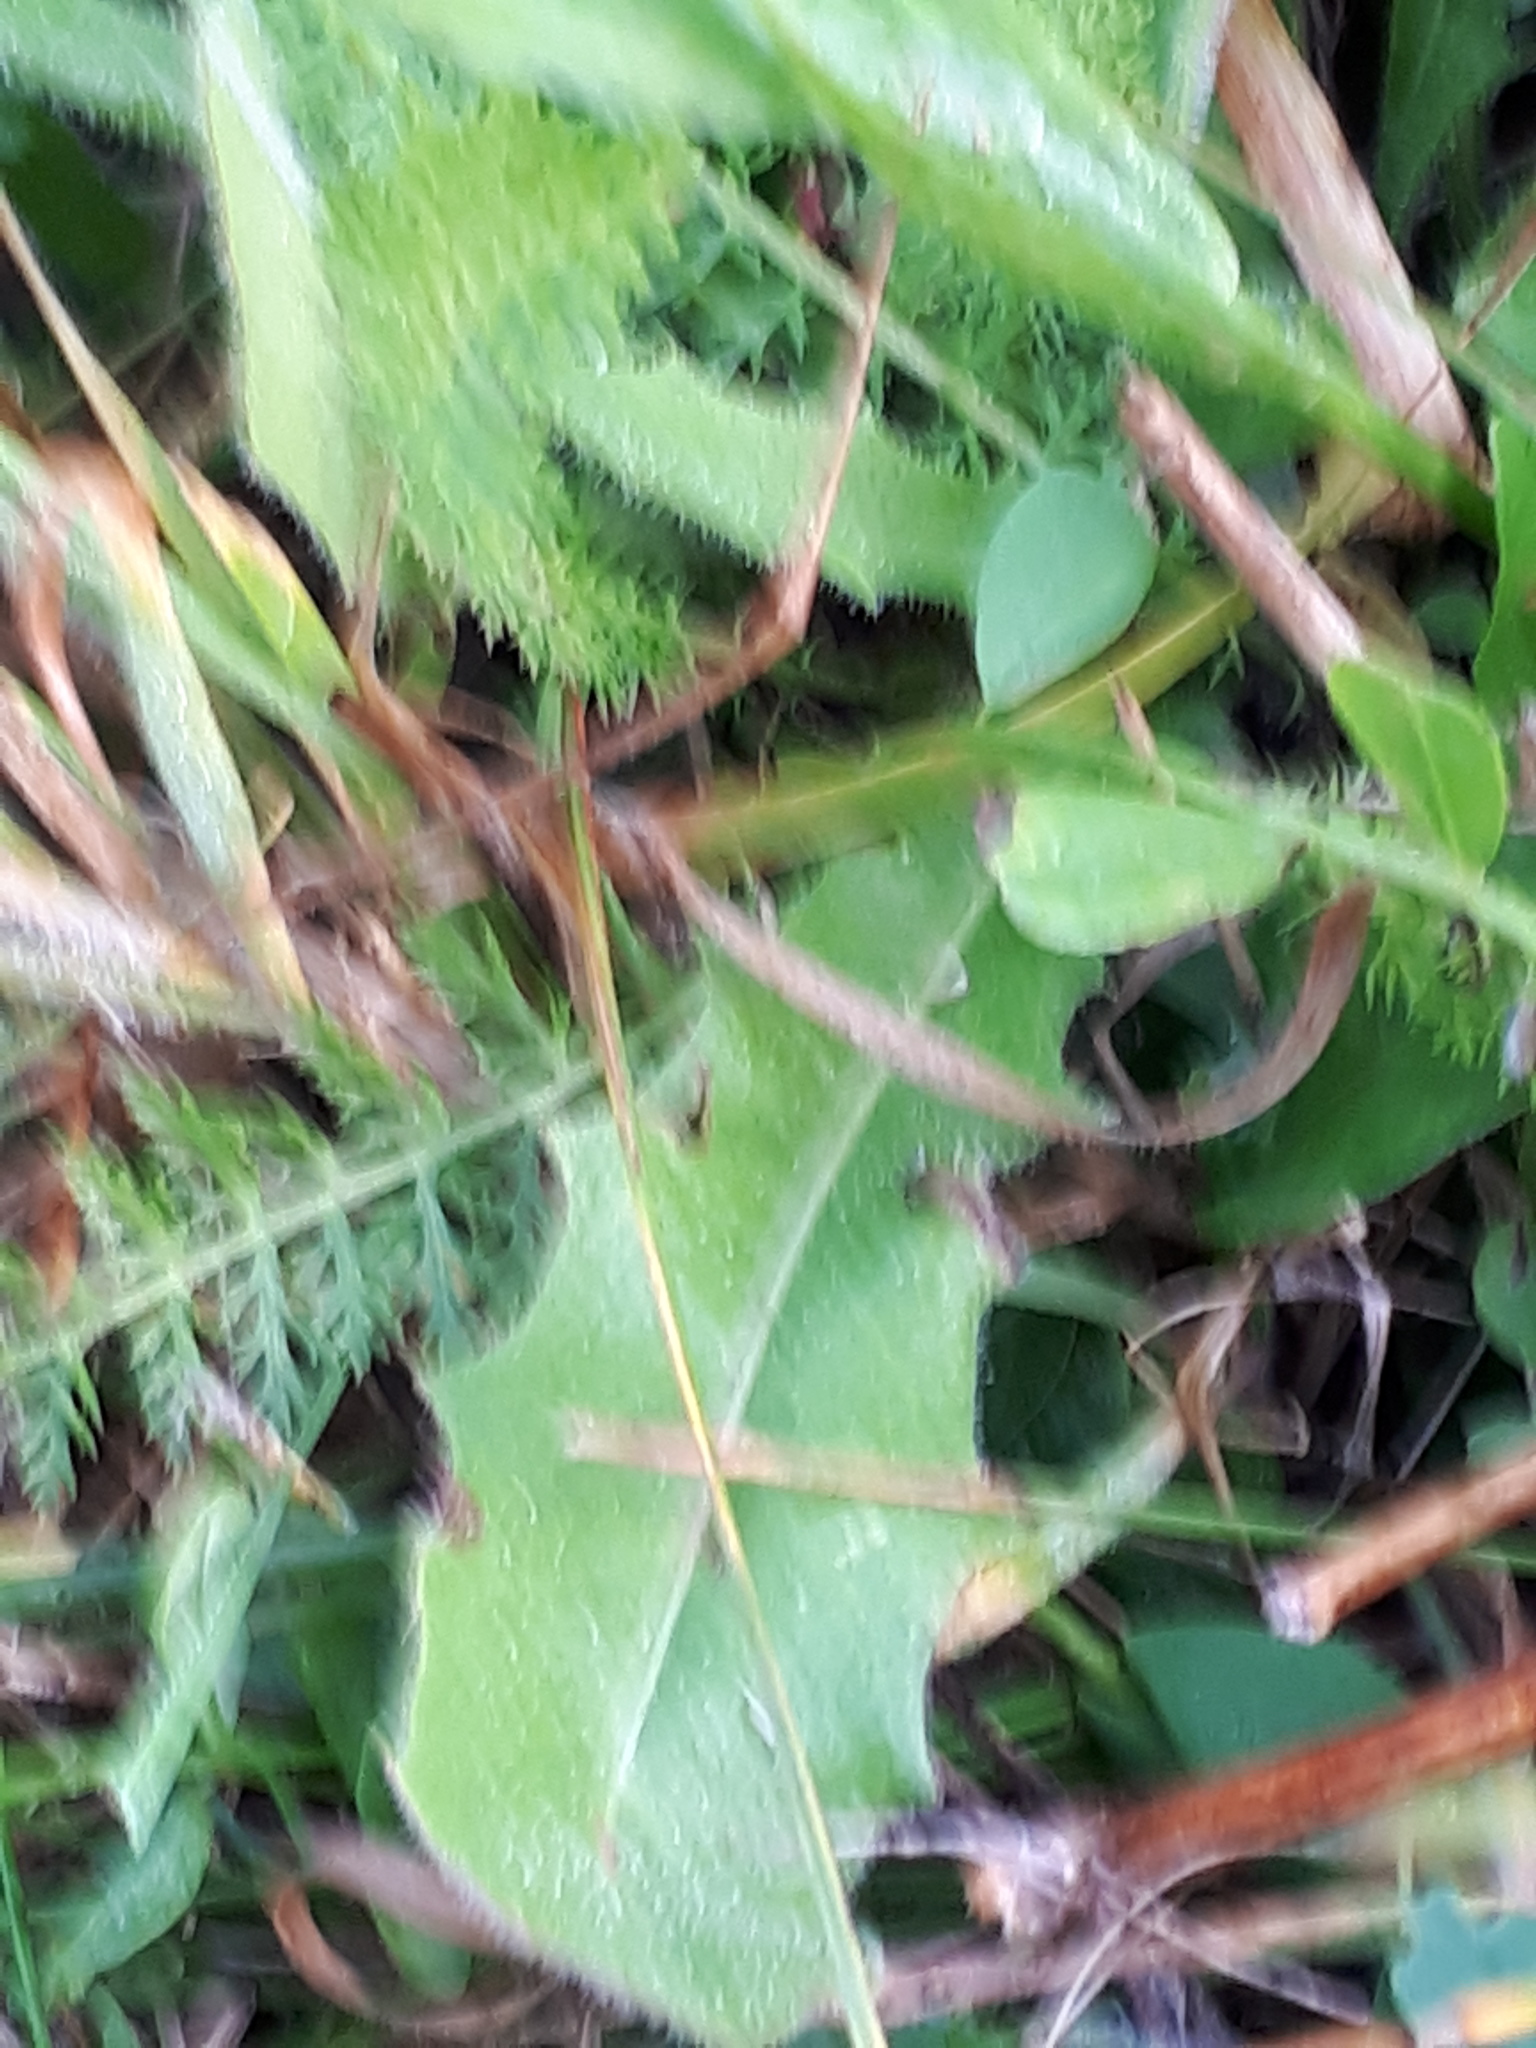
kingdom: Plantae
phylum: Tracheophyta
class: Magnoliopsida
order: Asterales
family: Asteraceae
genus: Leontodon
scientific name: Leontodon hispidus
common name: Rough hawkbit
